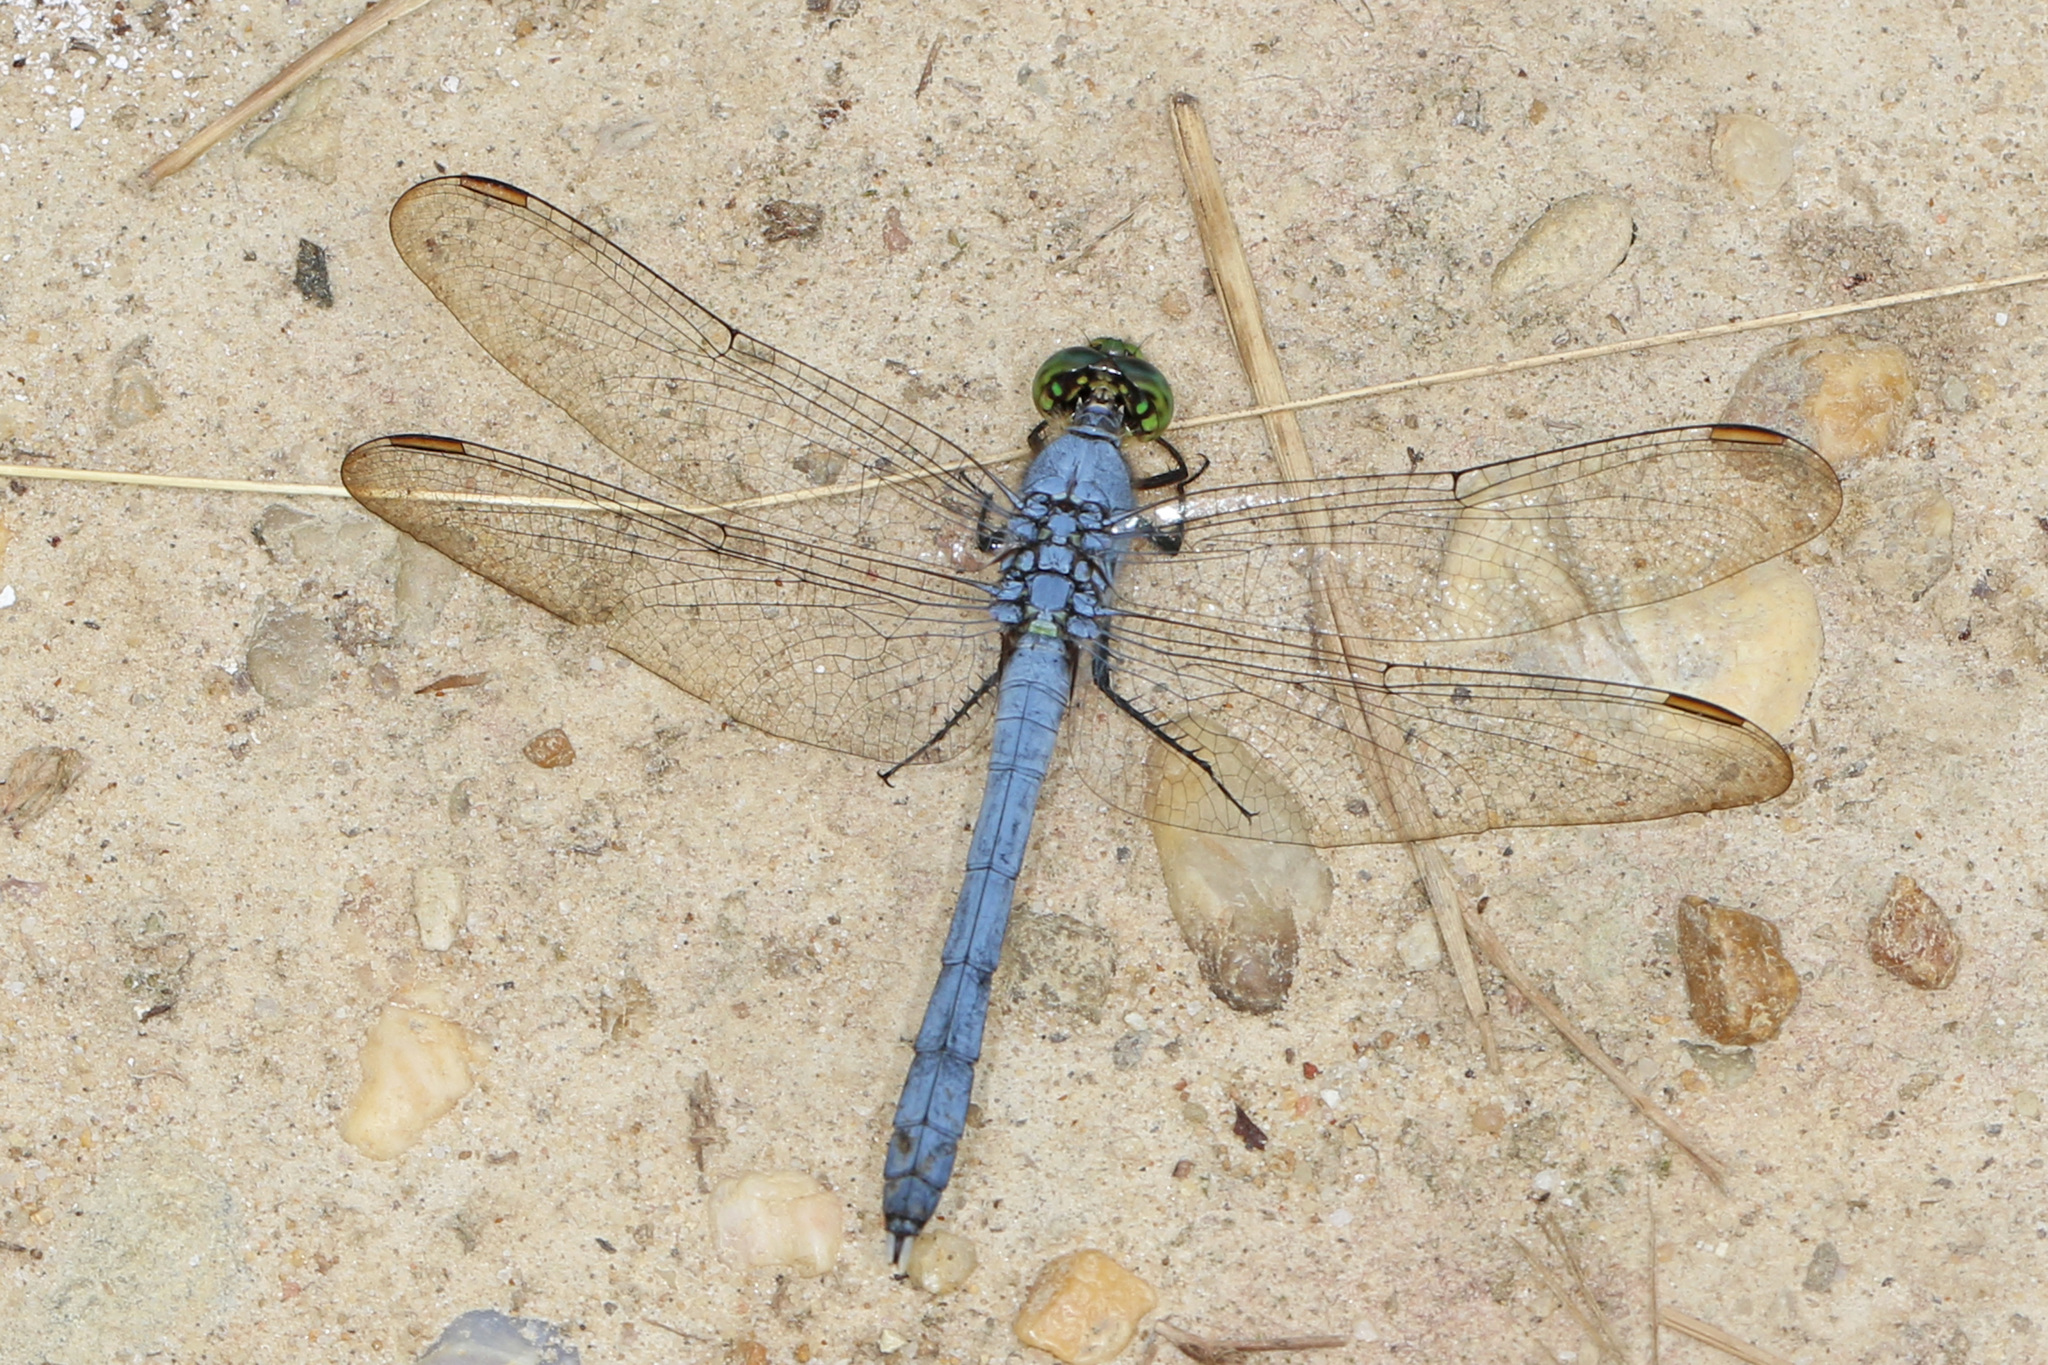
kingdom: Animalia
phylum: Arthropoda
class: Insecta
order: Odonata
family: Libellulidae
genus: Erythemis
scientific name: Erythemis simplicicollis
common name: Eastern pondhawk
